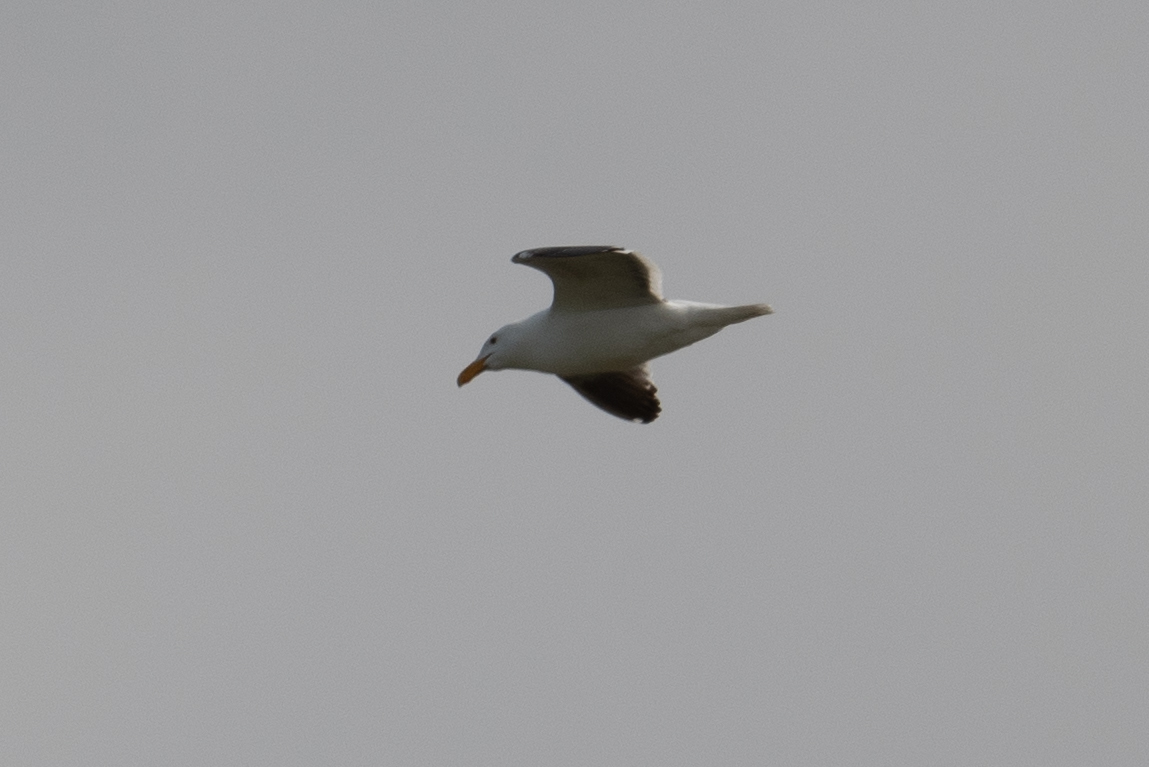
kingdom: Animalia
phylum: Chordata
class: Aves
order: Charadriiformes
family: Laridae
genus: Larus
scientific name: Larus occidentalis
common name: Western gull
